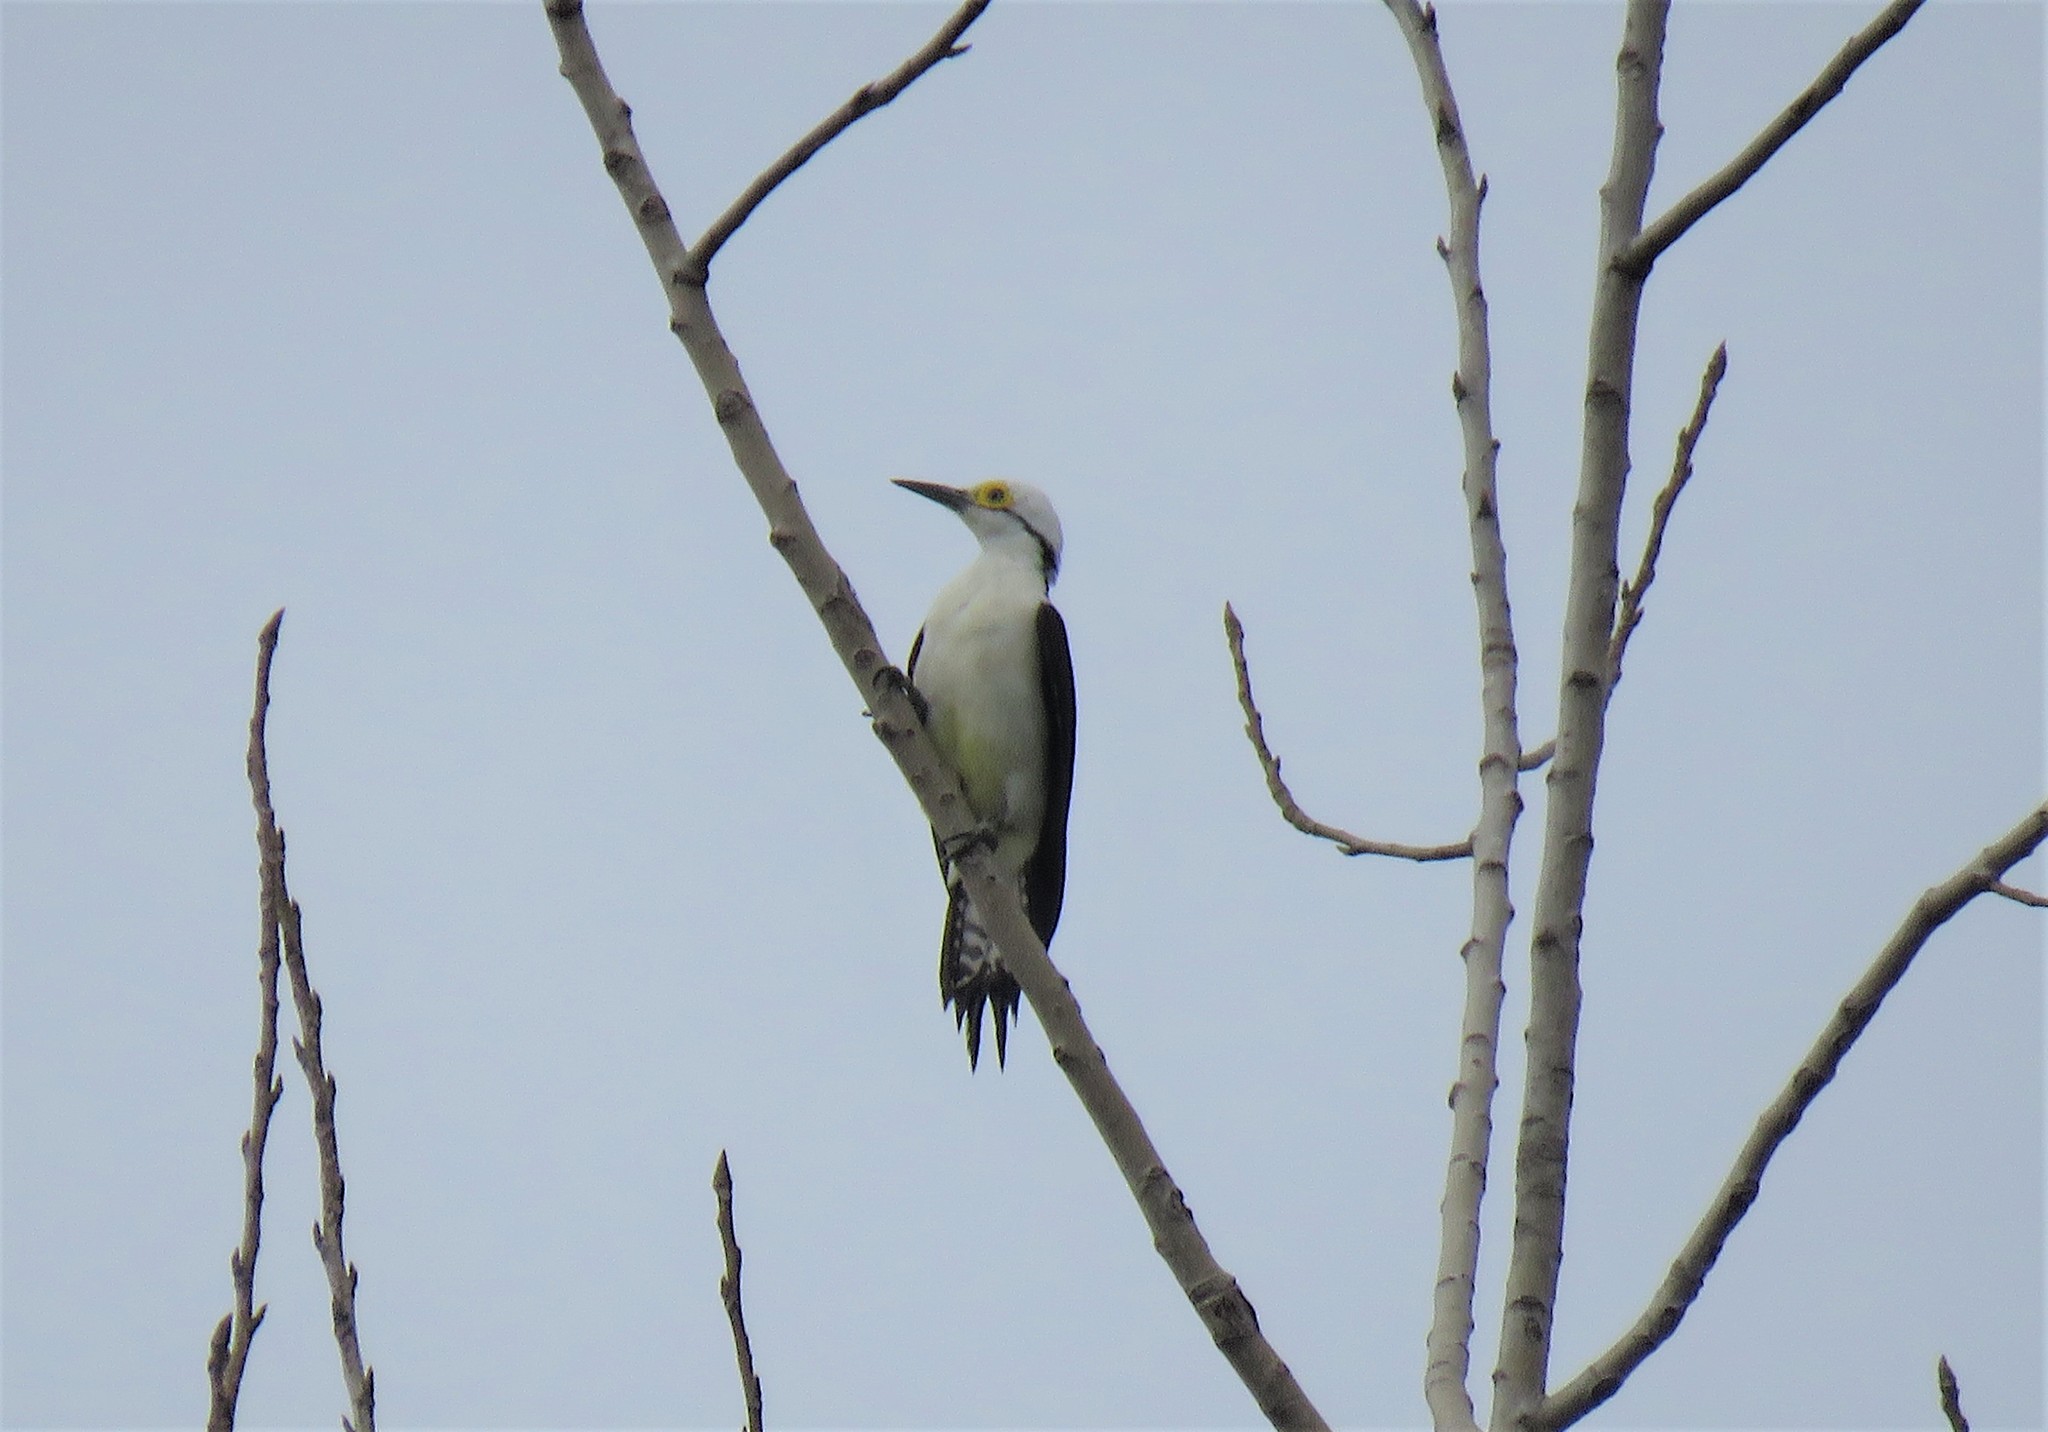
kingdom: Animalia
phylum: Chordata
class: Aves
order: Piciformes
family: Picidae
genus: Melanerpes
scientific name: Melanerpes candidus
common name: White woodpecker
